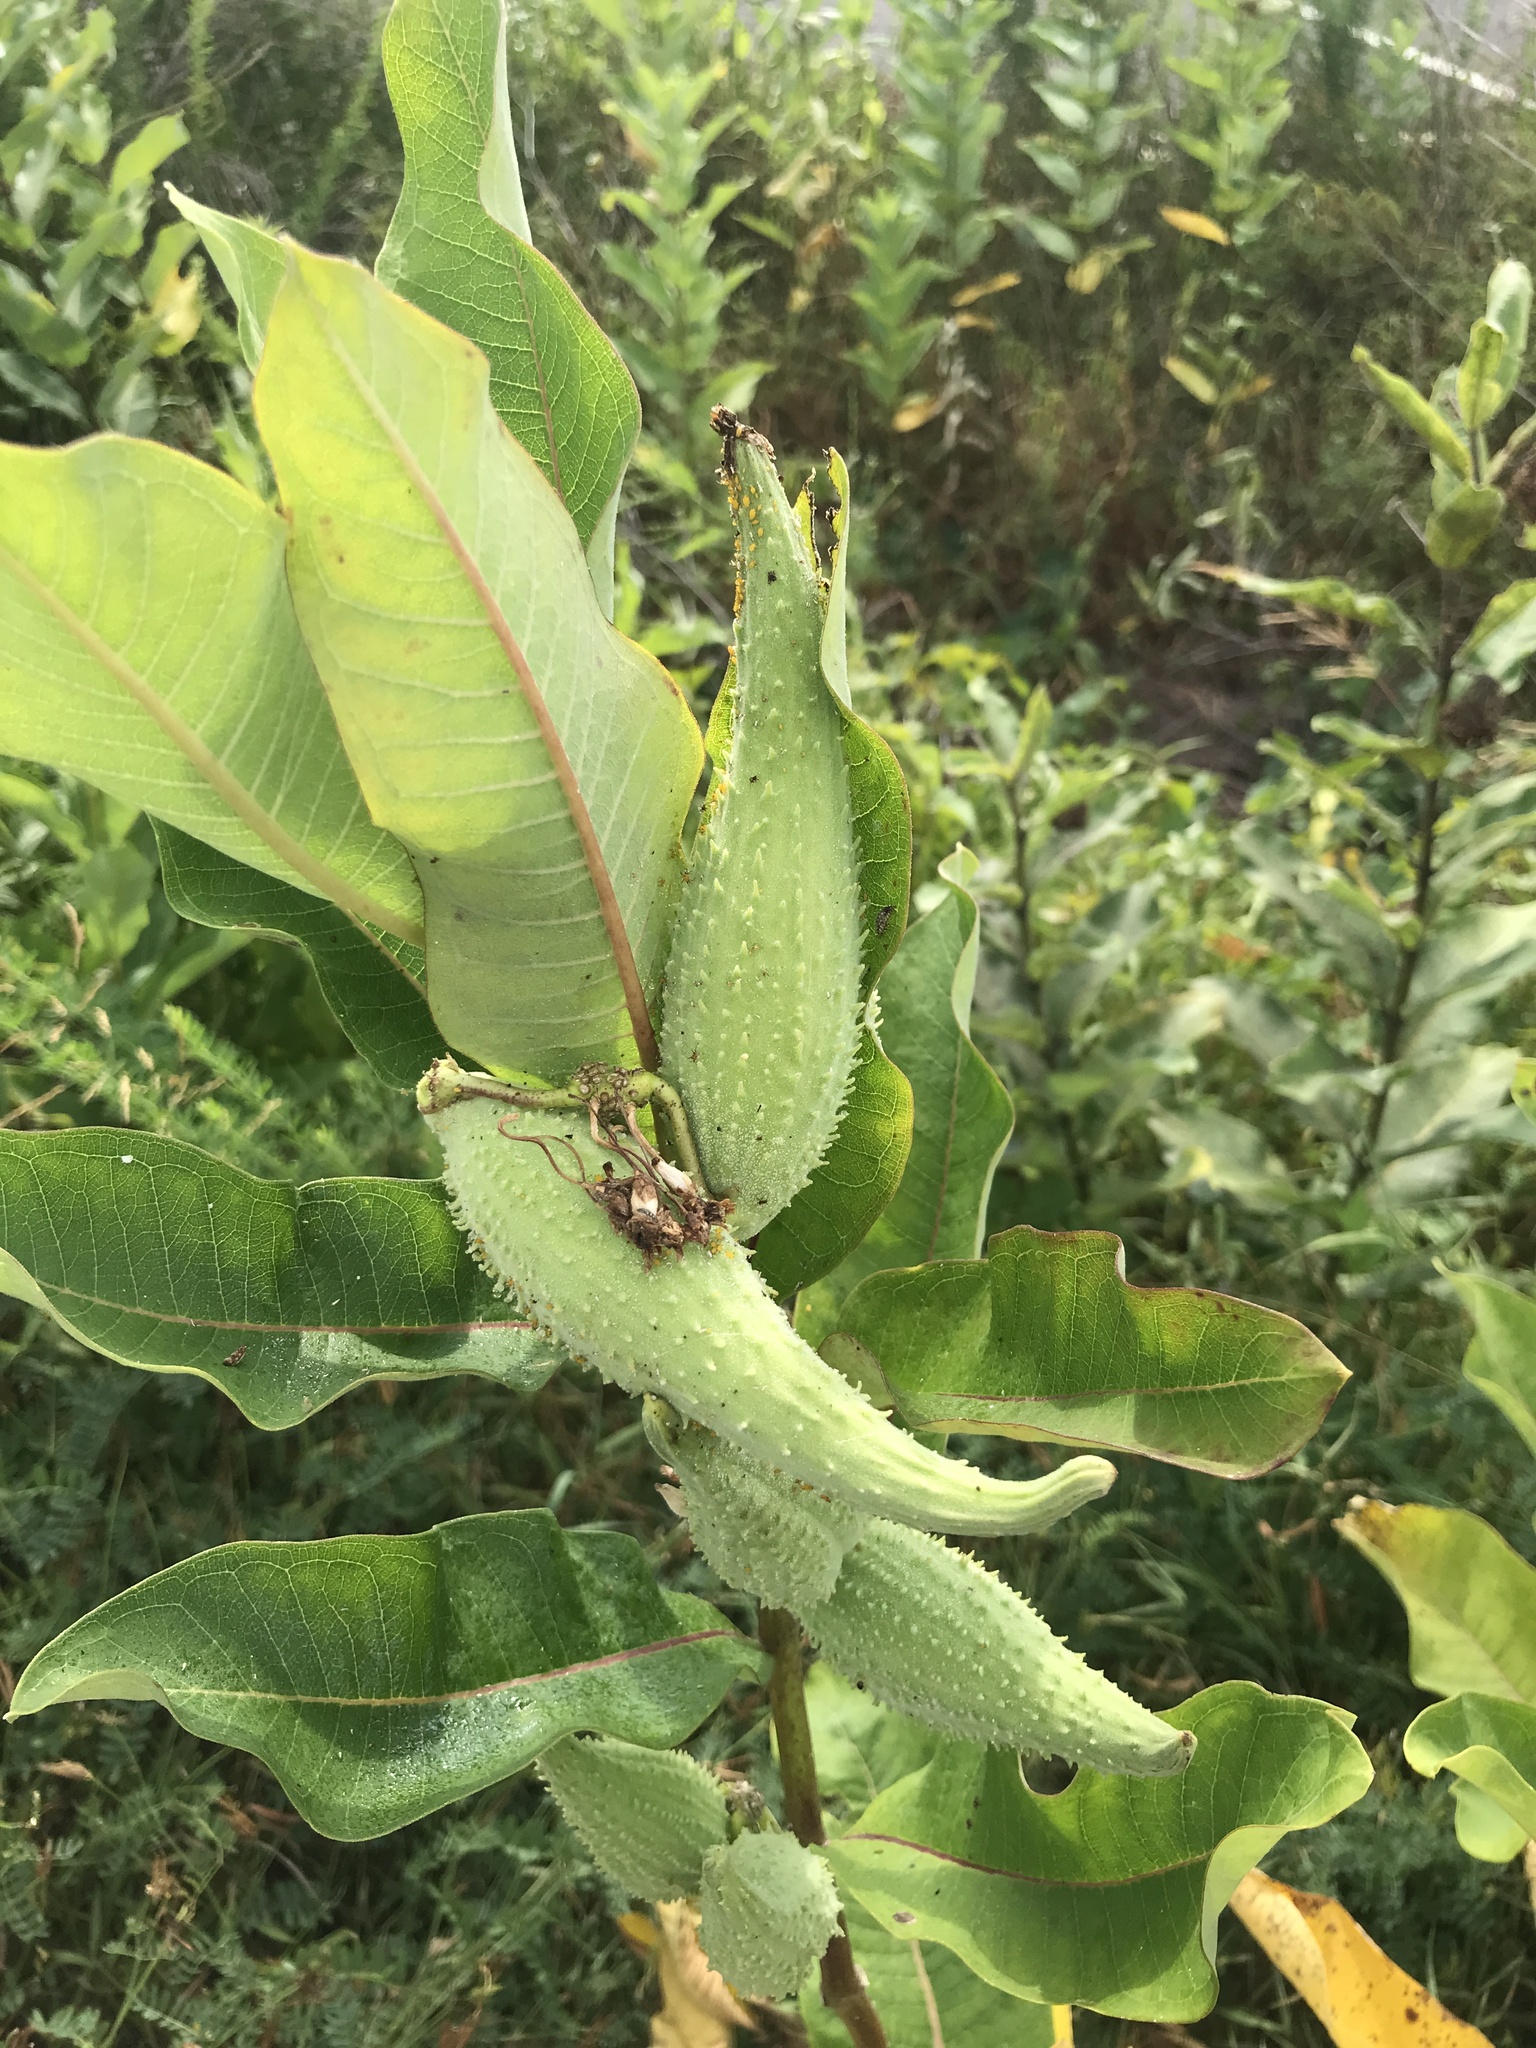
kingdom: Plantae
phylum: Tracheophyta
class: Magnoliopsida
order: Gentianales
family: Apocynaceae
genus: Asclepias
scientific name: Asclepias syriaca
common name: Common milkweed
